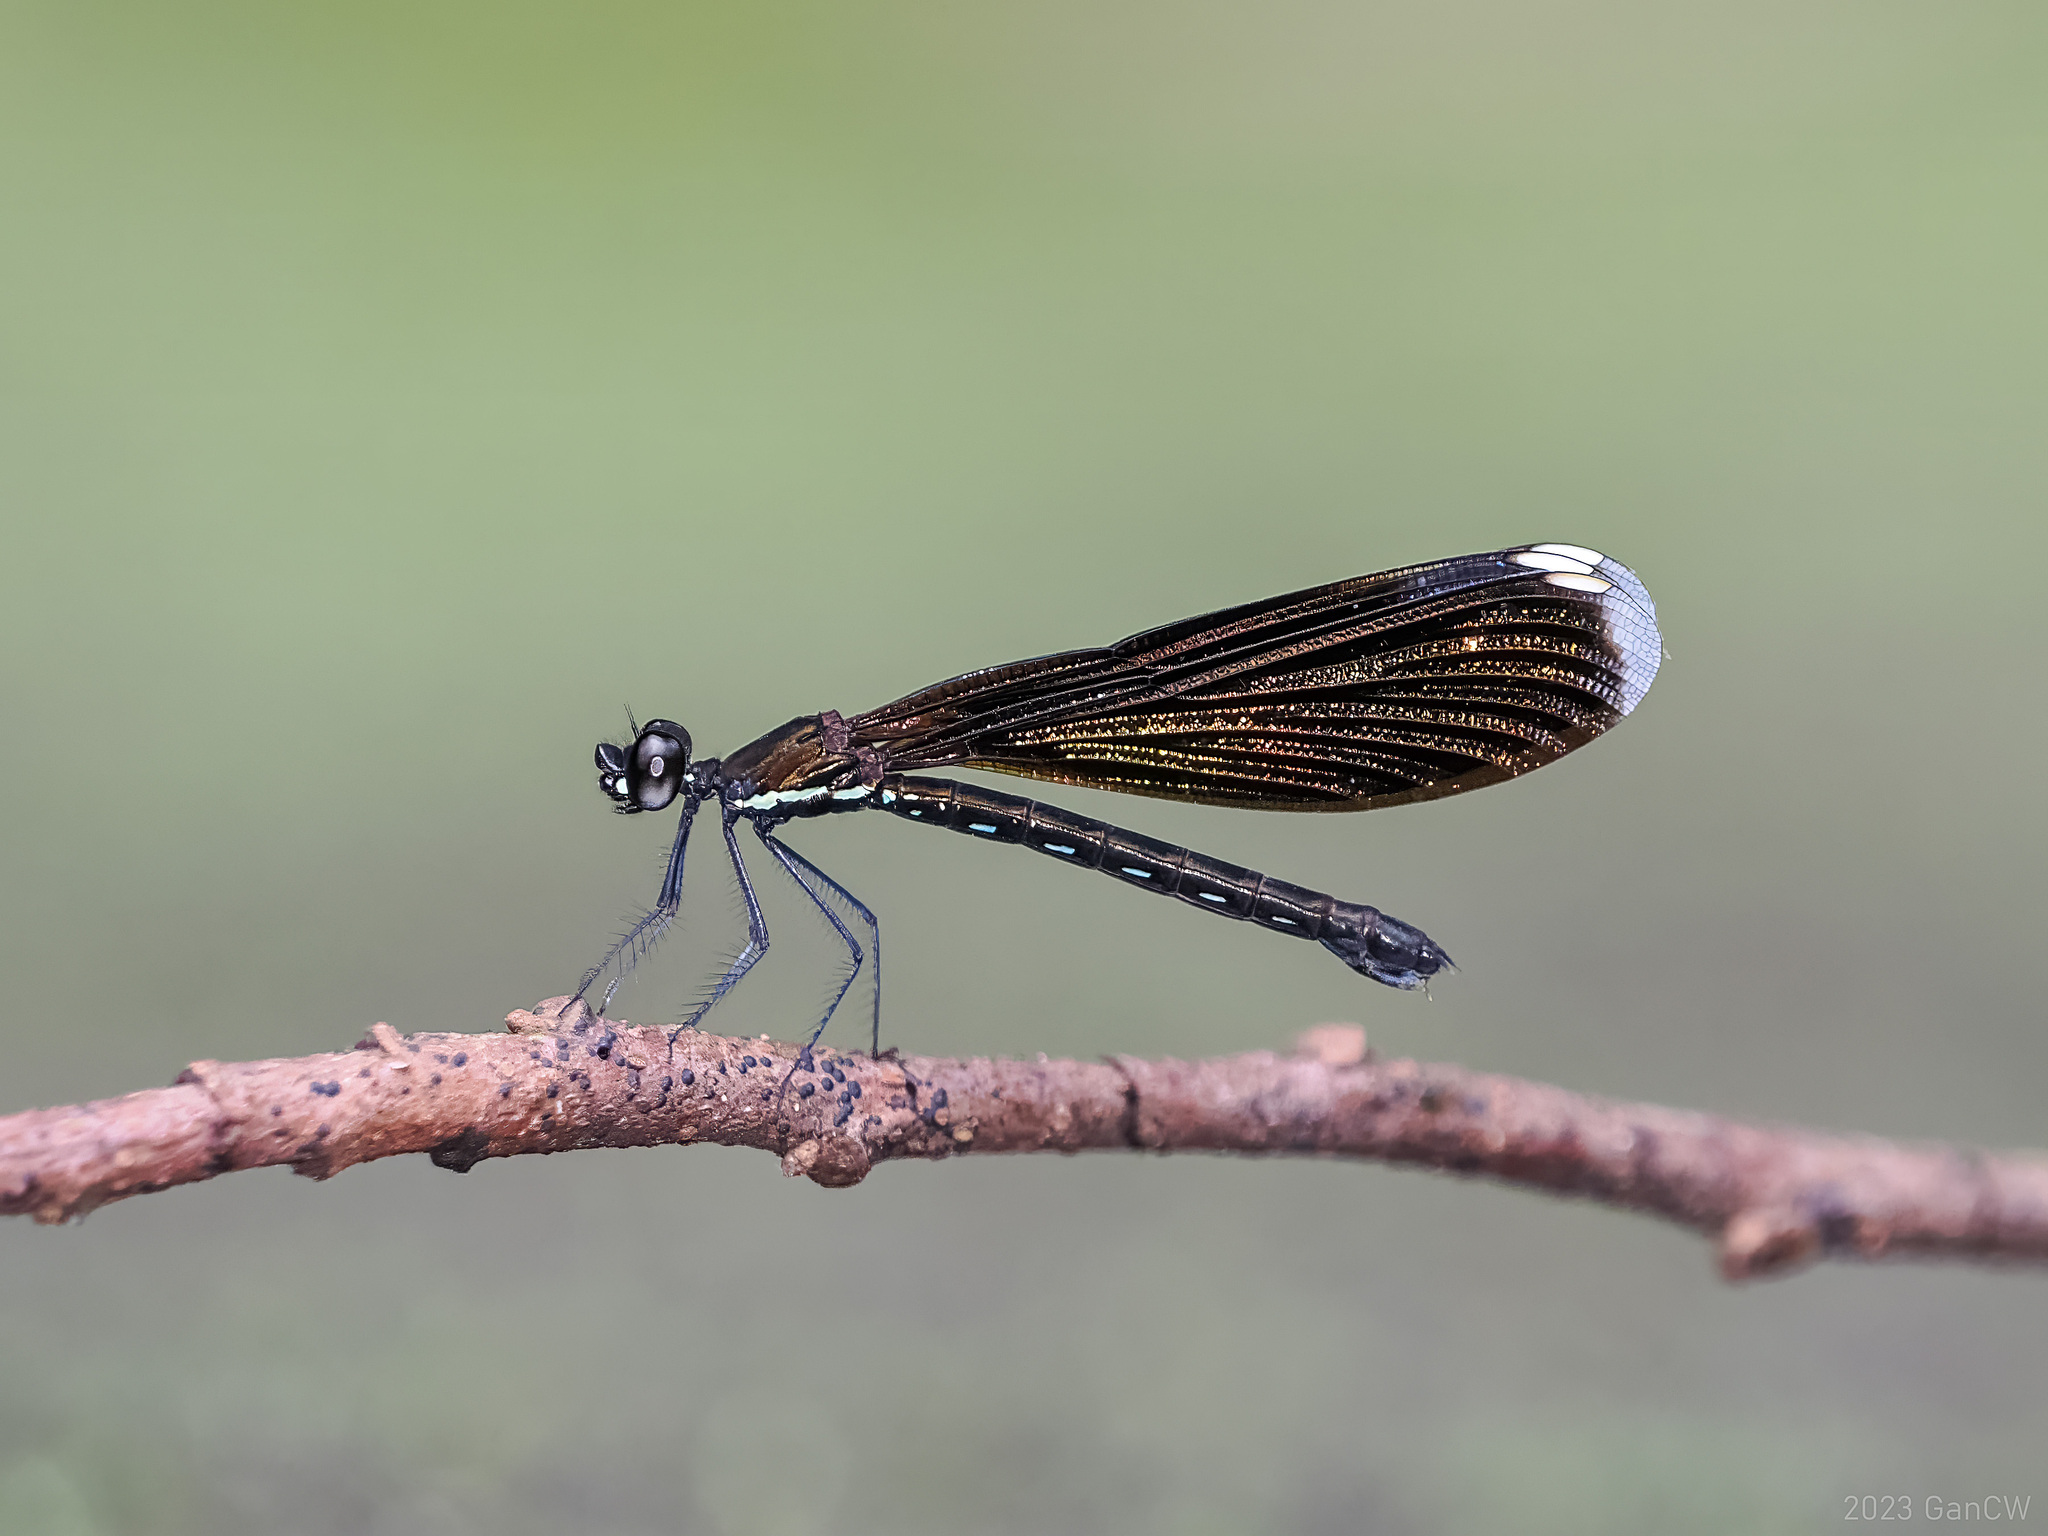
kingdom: Animalia
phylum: Arthropoda
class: Insecta
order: Odonata
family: Chlorocyphidae
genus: Rhinocypha
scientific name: Rhinocypha monochroa
